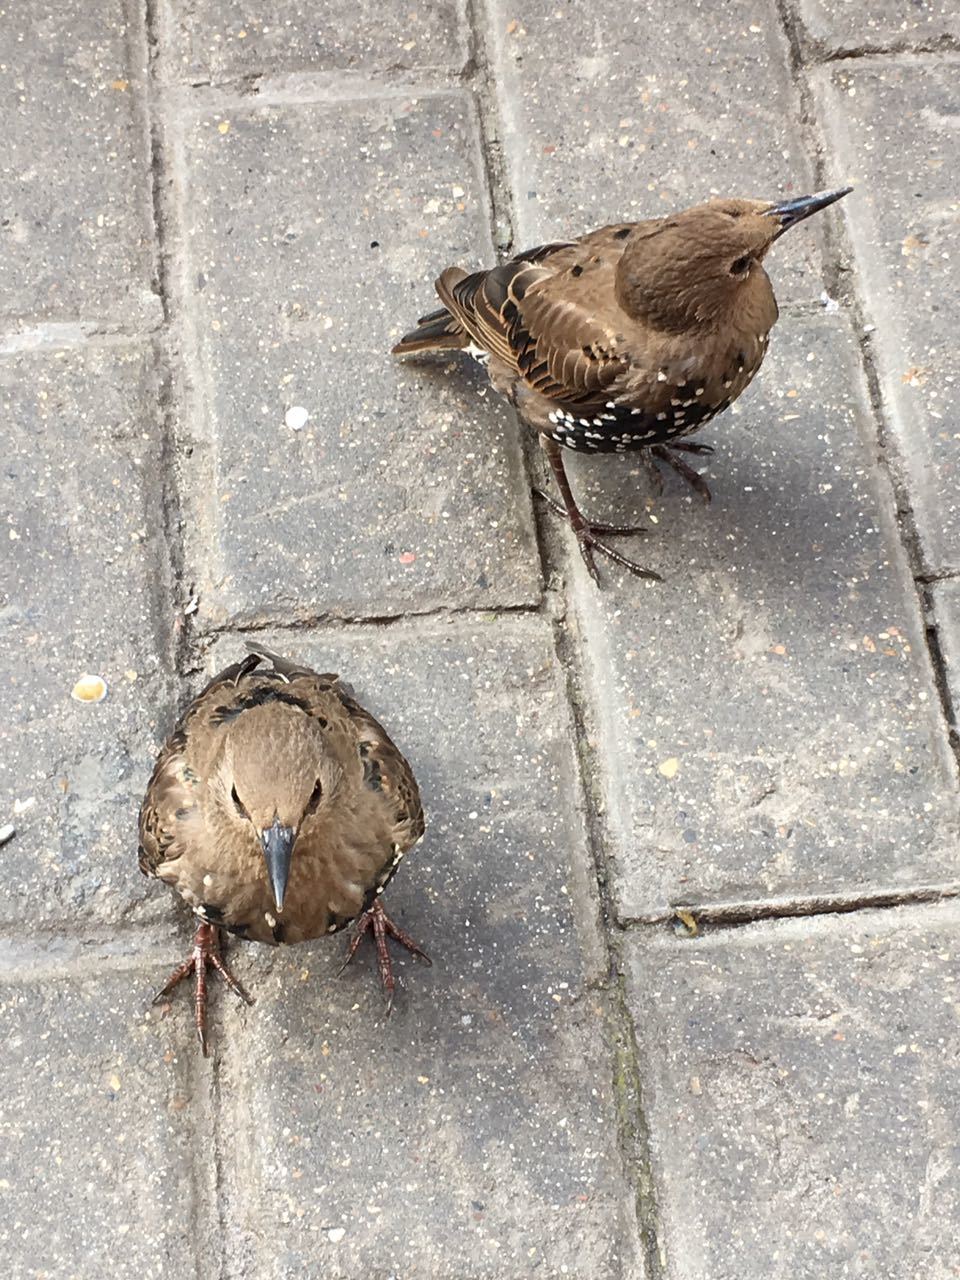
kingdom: Animalia
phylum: Chordata
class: Aves
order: Passeriformes
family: Sturnidae
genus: Sturnus
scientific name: Sturnus vulgaris
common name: Common starling
